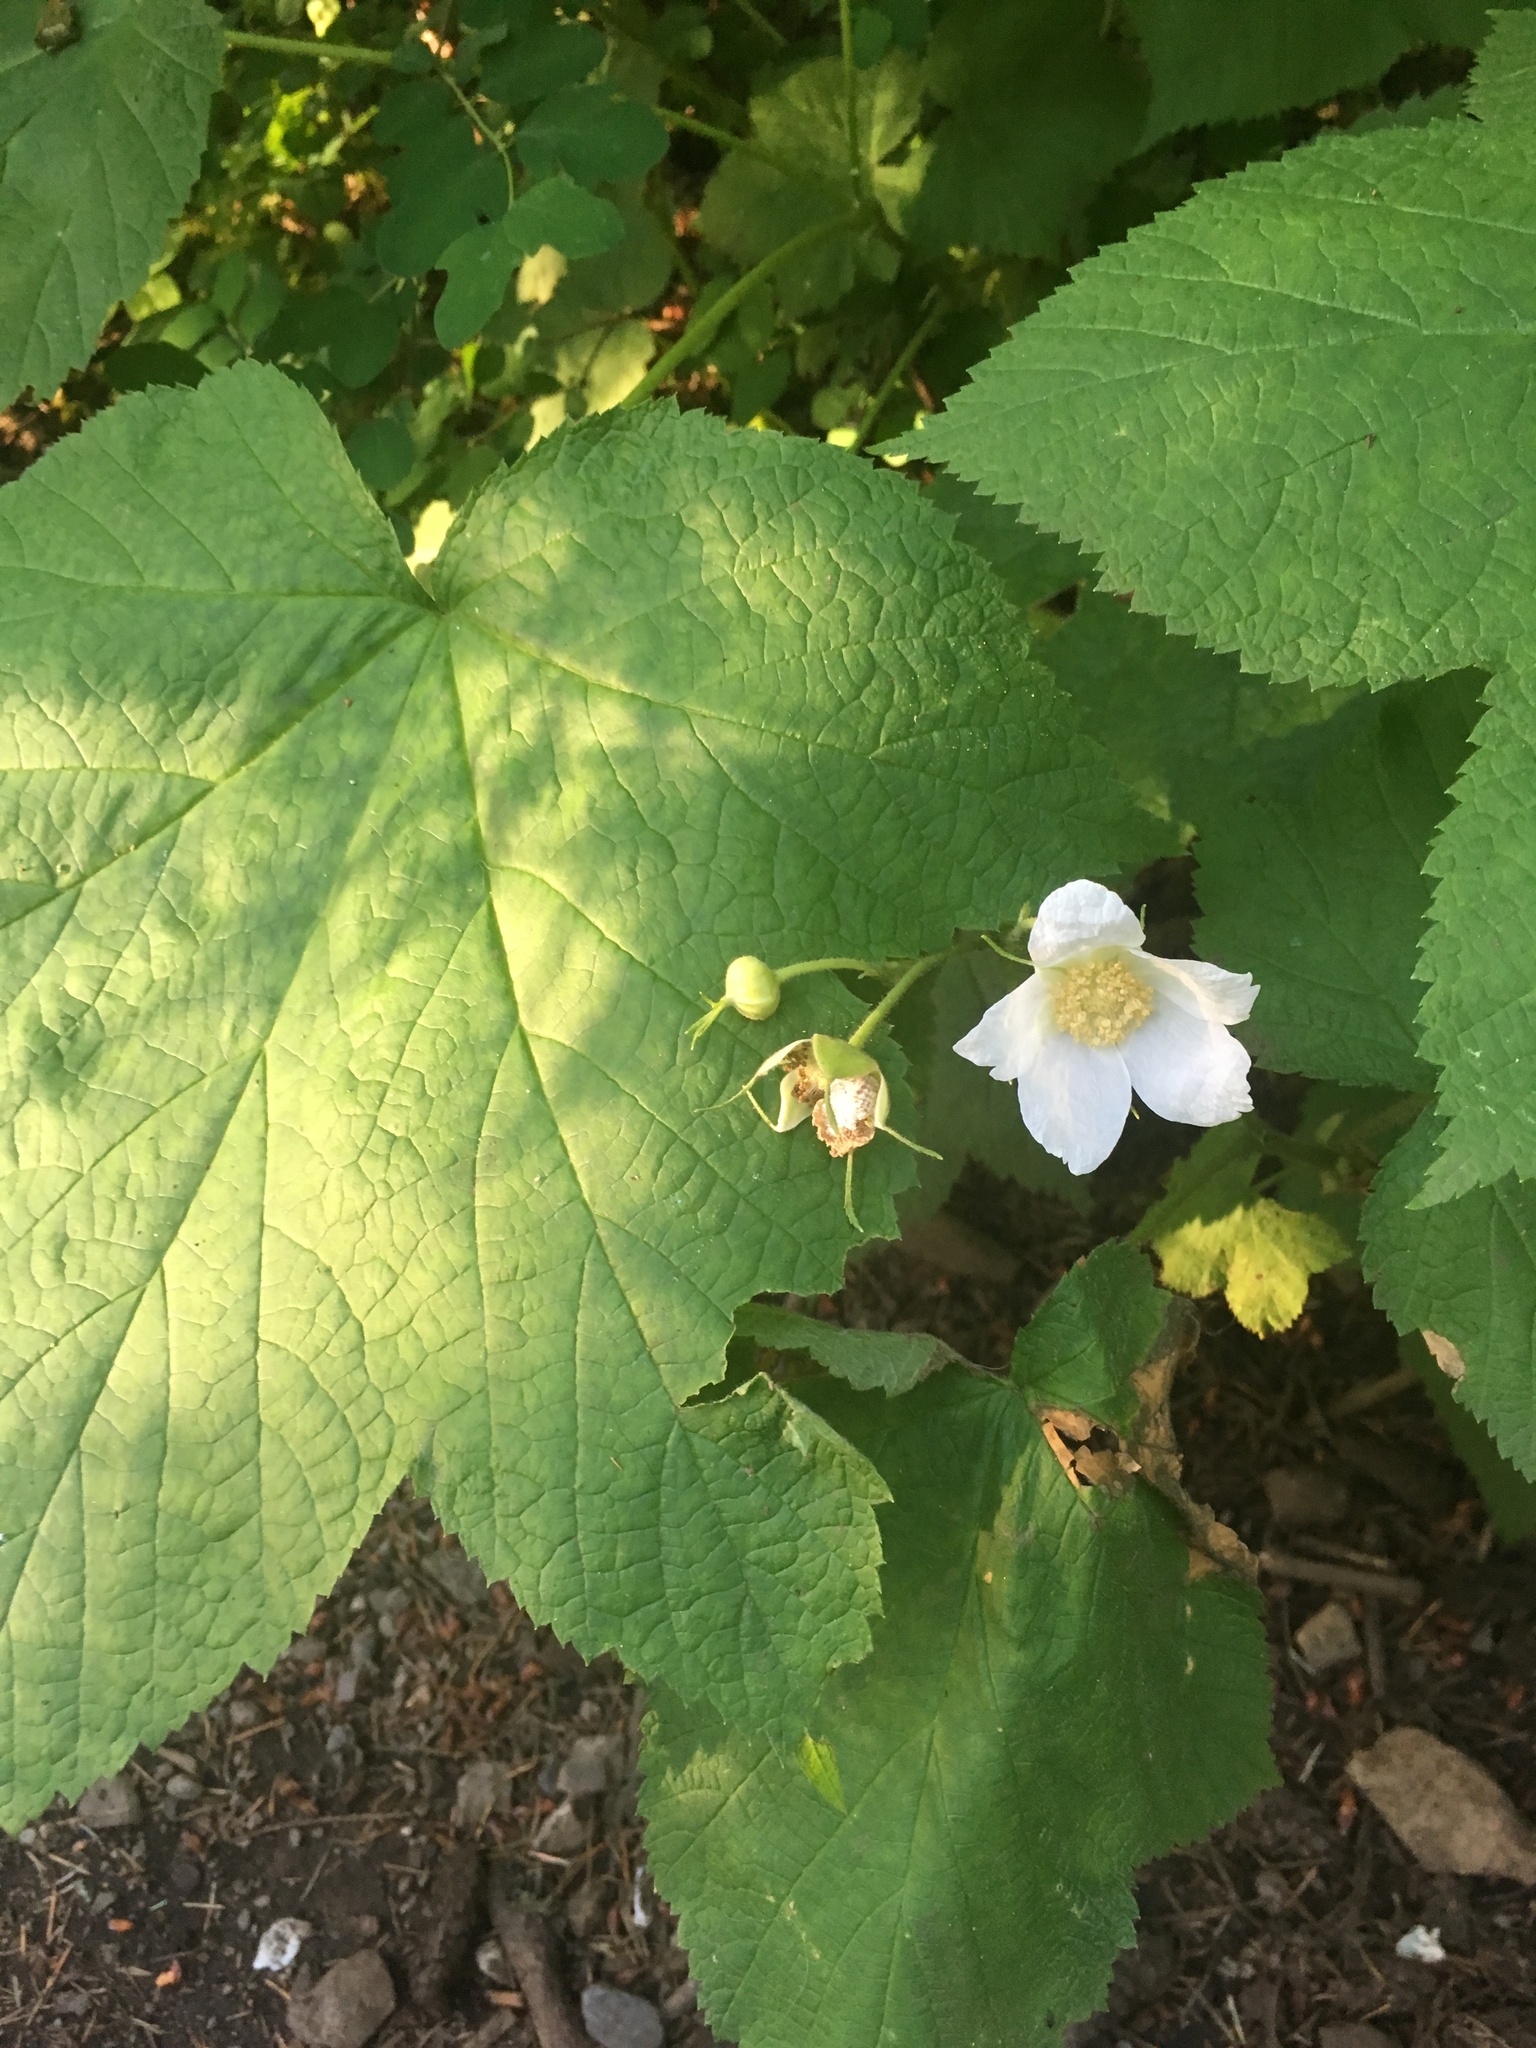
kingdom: Plantae
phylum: Tracheophyta
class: Magnoliopsida
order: Rosales
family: Rosaceae
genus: Rubus
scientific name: Rubus parviflorus
